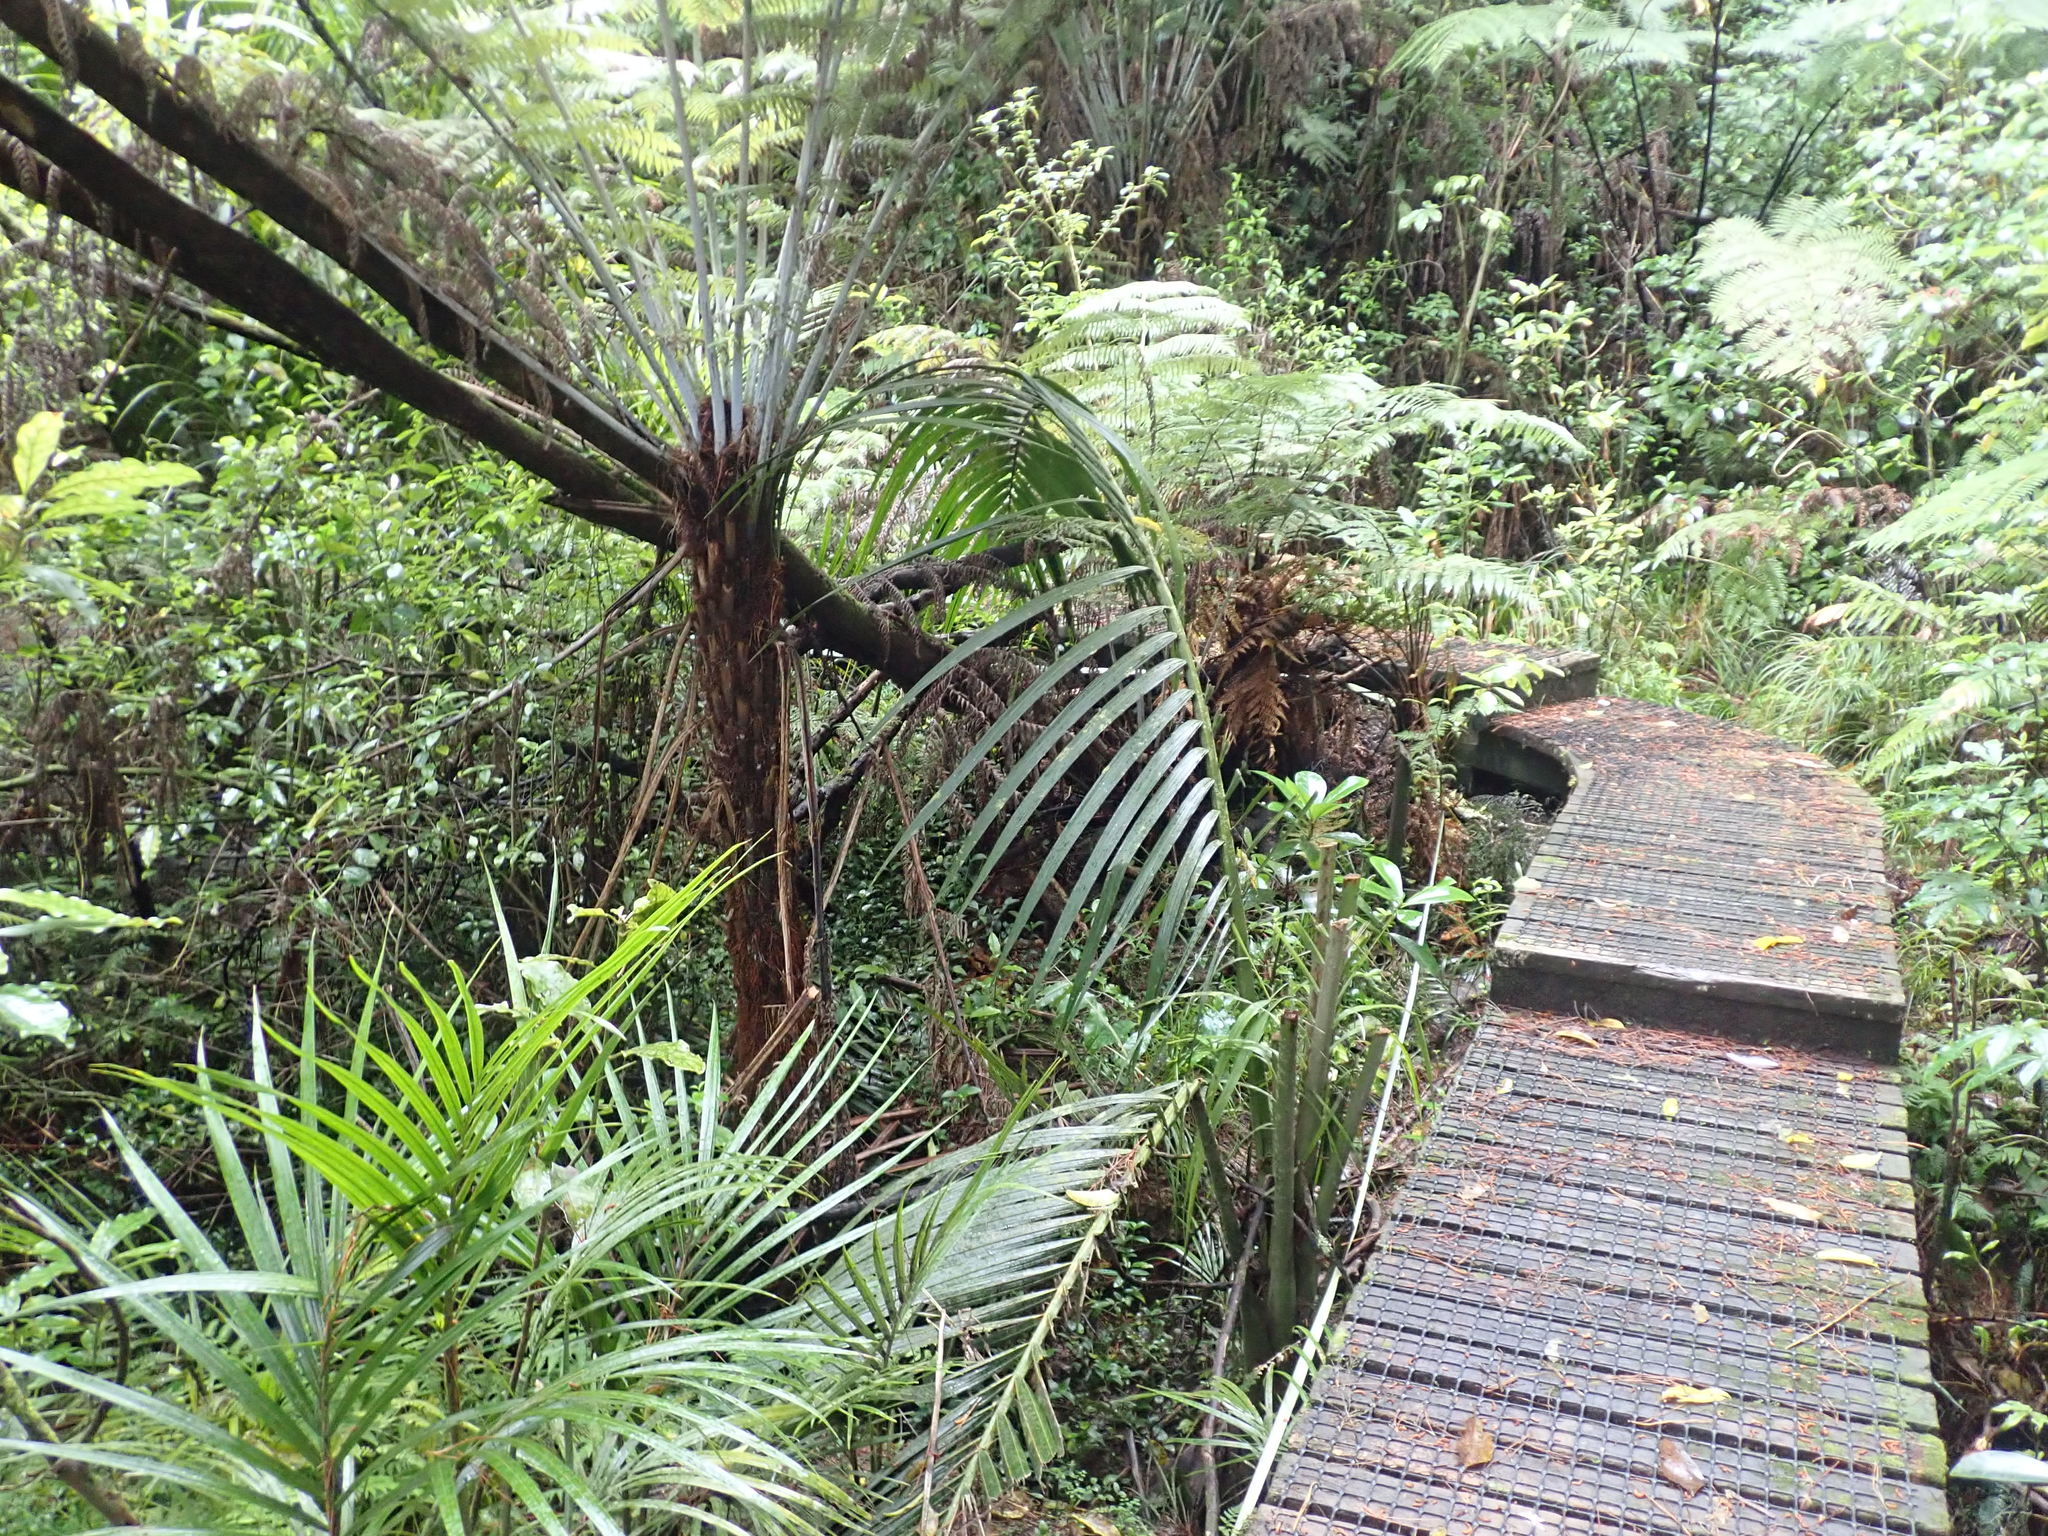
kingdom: Plantae
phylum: Tracheophyta
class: Liliopsida
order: Arecales
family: Arecaceae
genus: Rhopalostylis
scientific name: Rhopalostylis sapida
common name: Feather-duster palm
